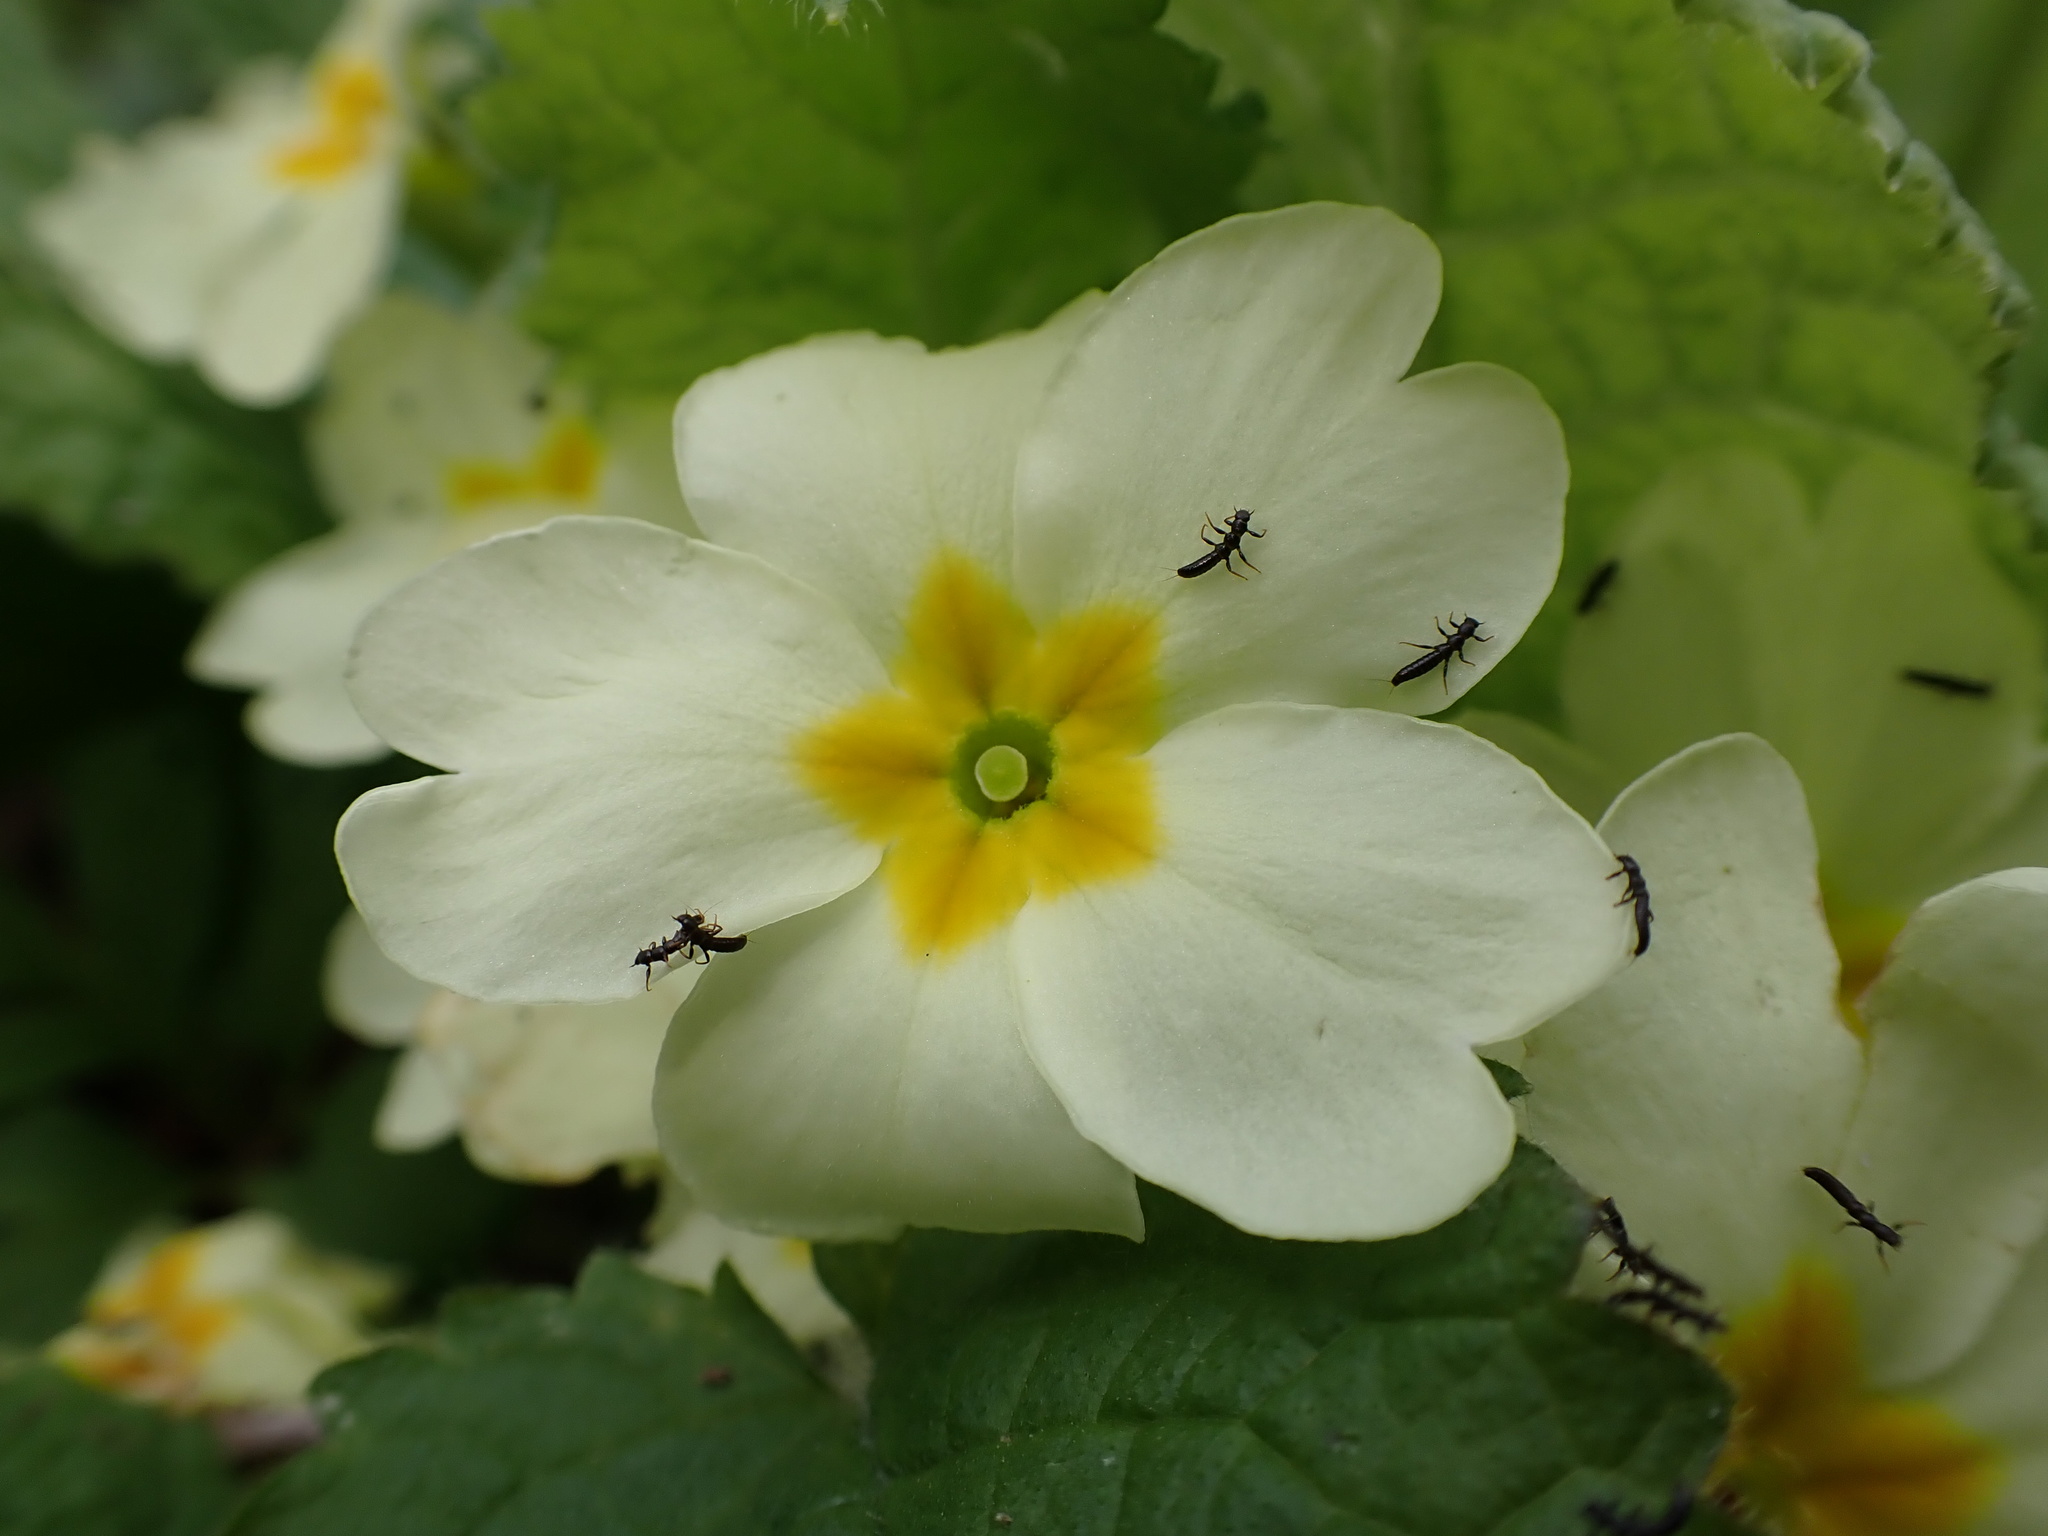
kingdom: Plantae
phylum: Tracheophyta
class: Magnoliopsida
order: Ericales
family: Primulaceae
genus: Primula
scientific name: Primula vulgaris
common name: Primrose
